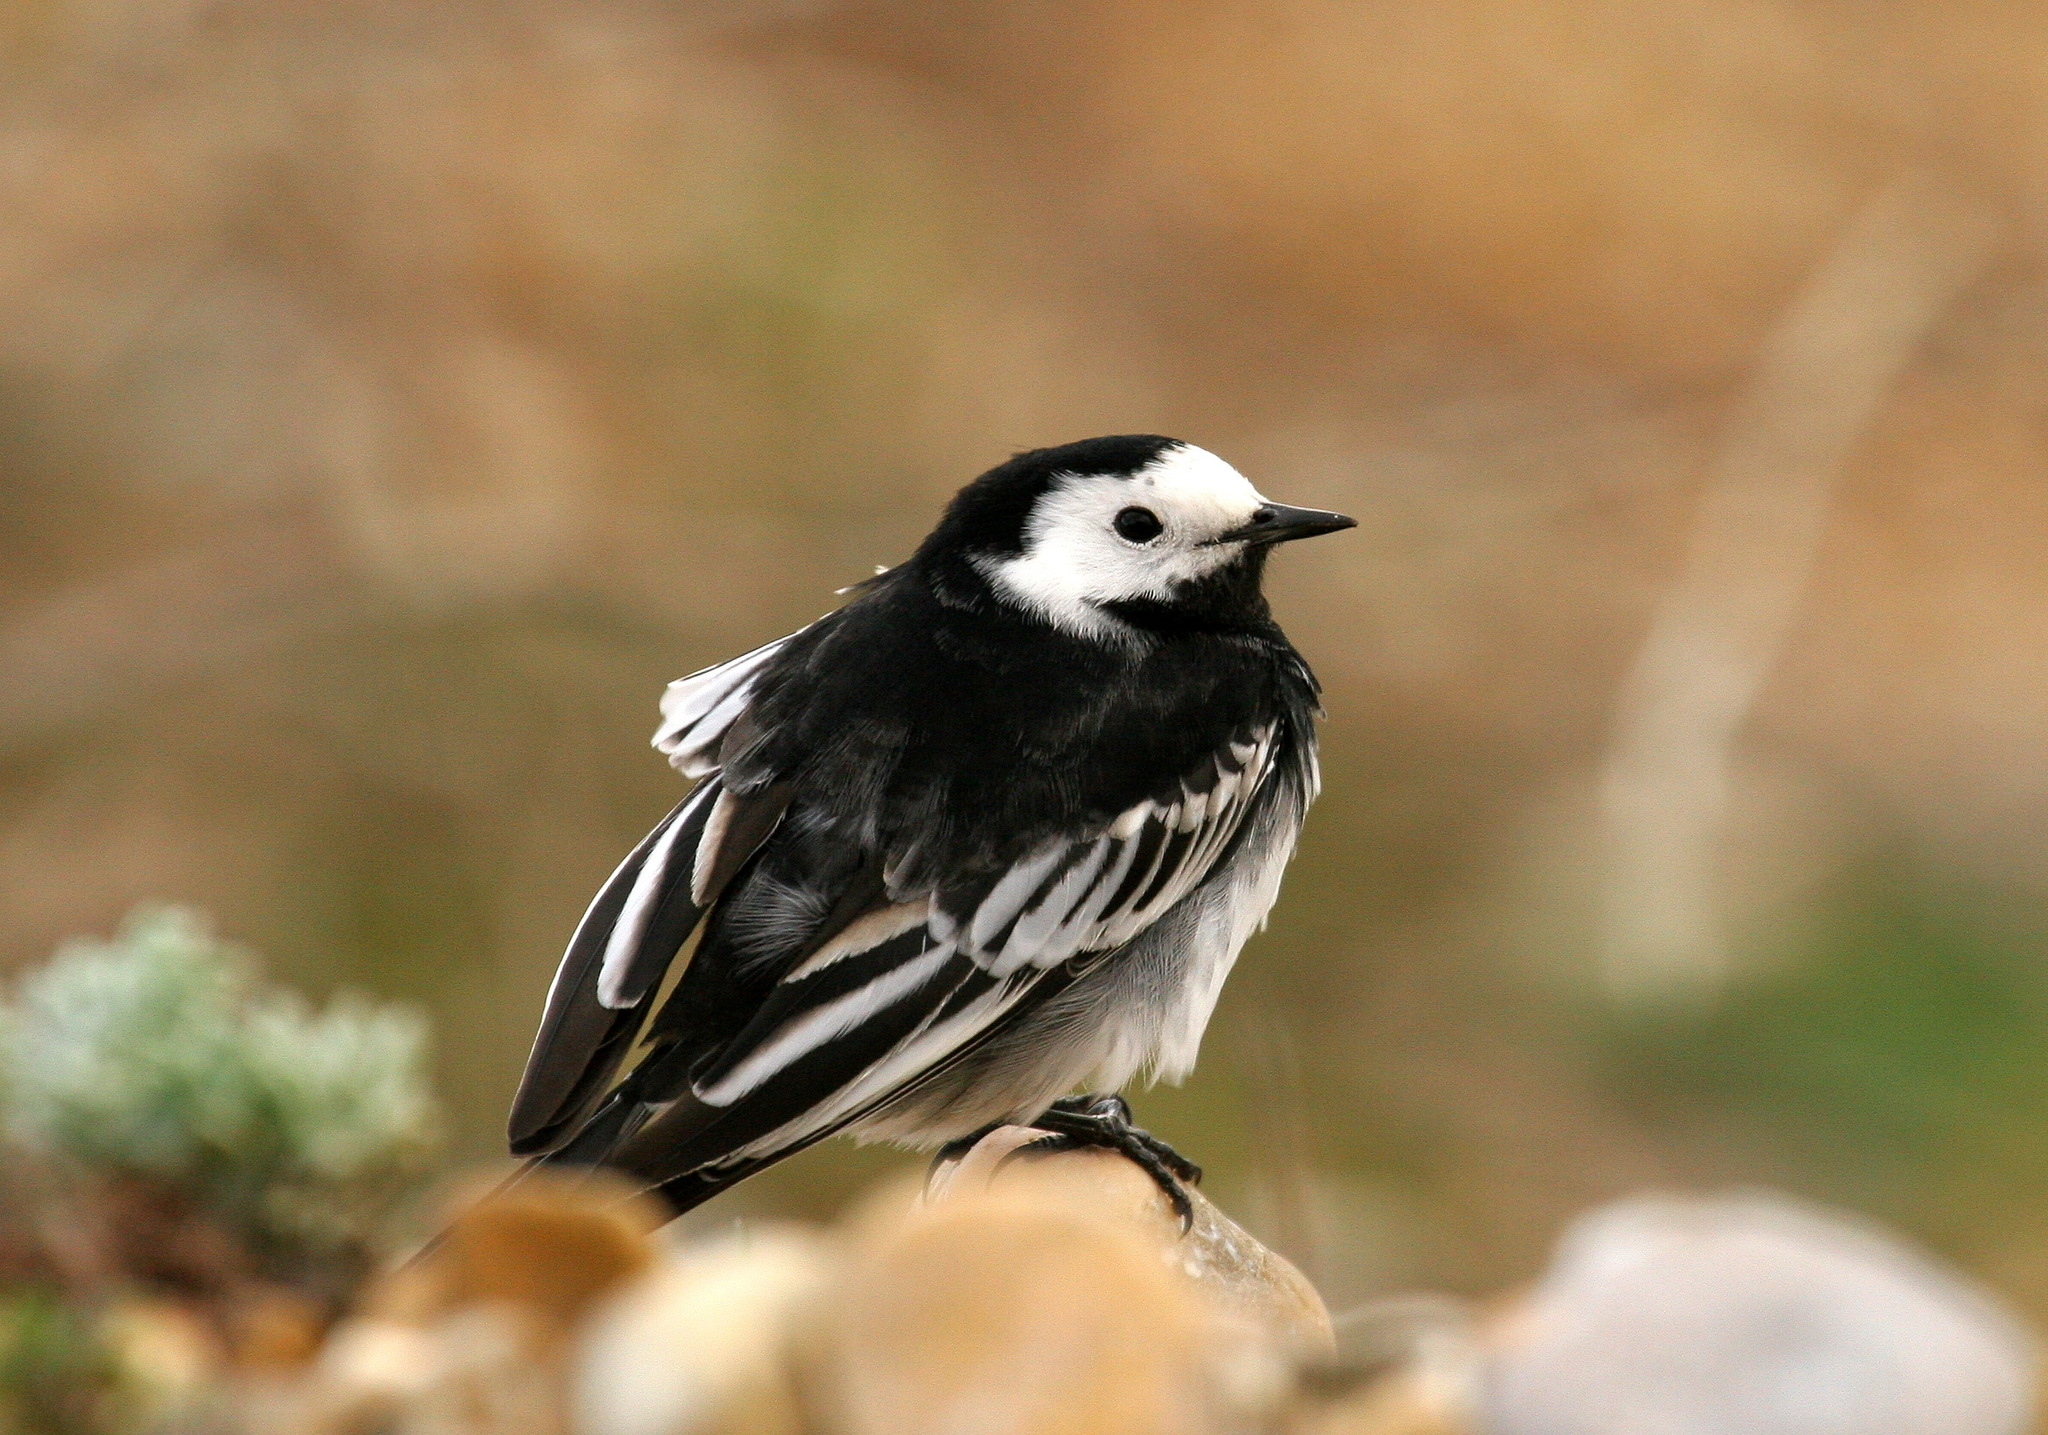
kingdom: Animalia
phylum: Chordata
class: Aves
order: Passeriformes
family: Motacillidae
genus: Motacilla
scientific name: Motacilla alba
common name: White wagtail
